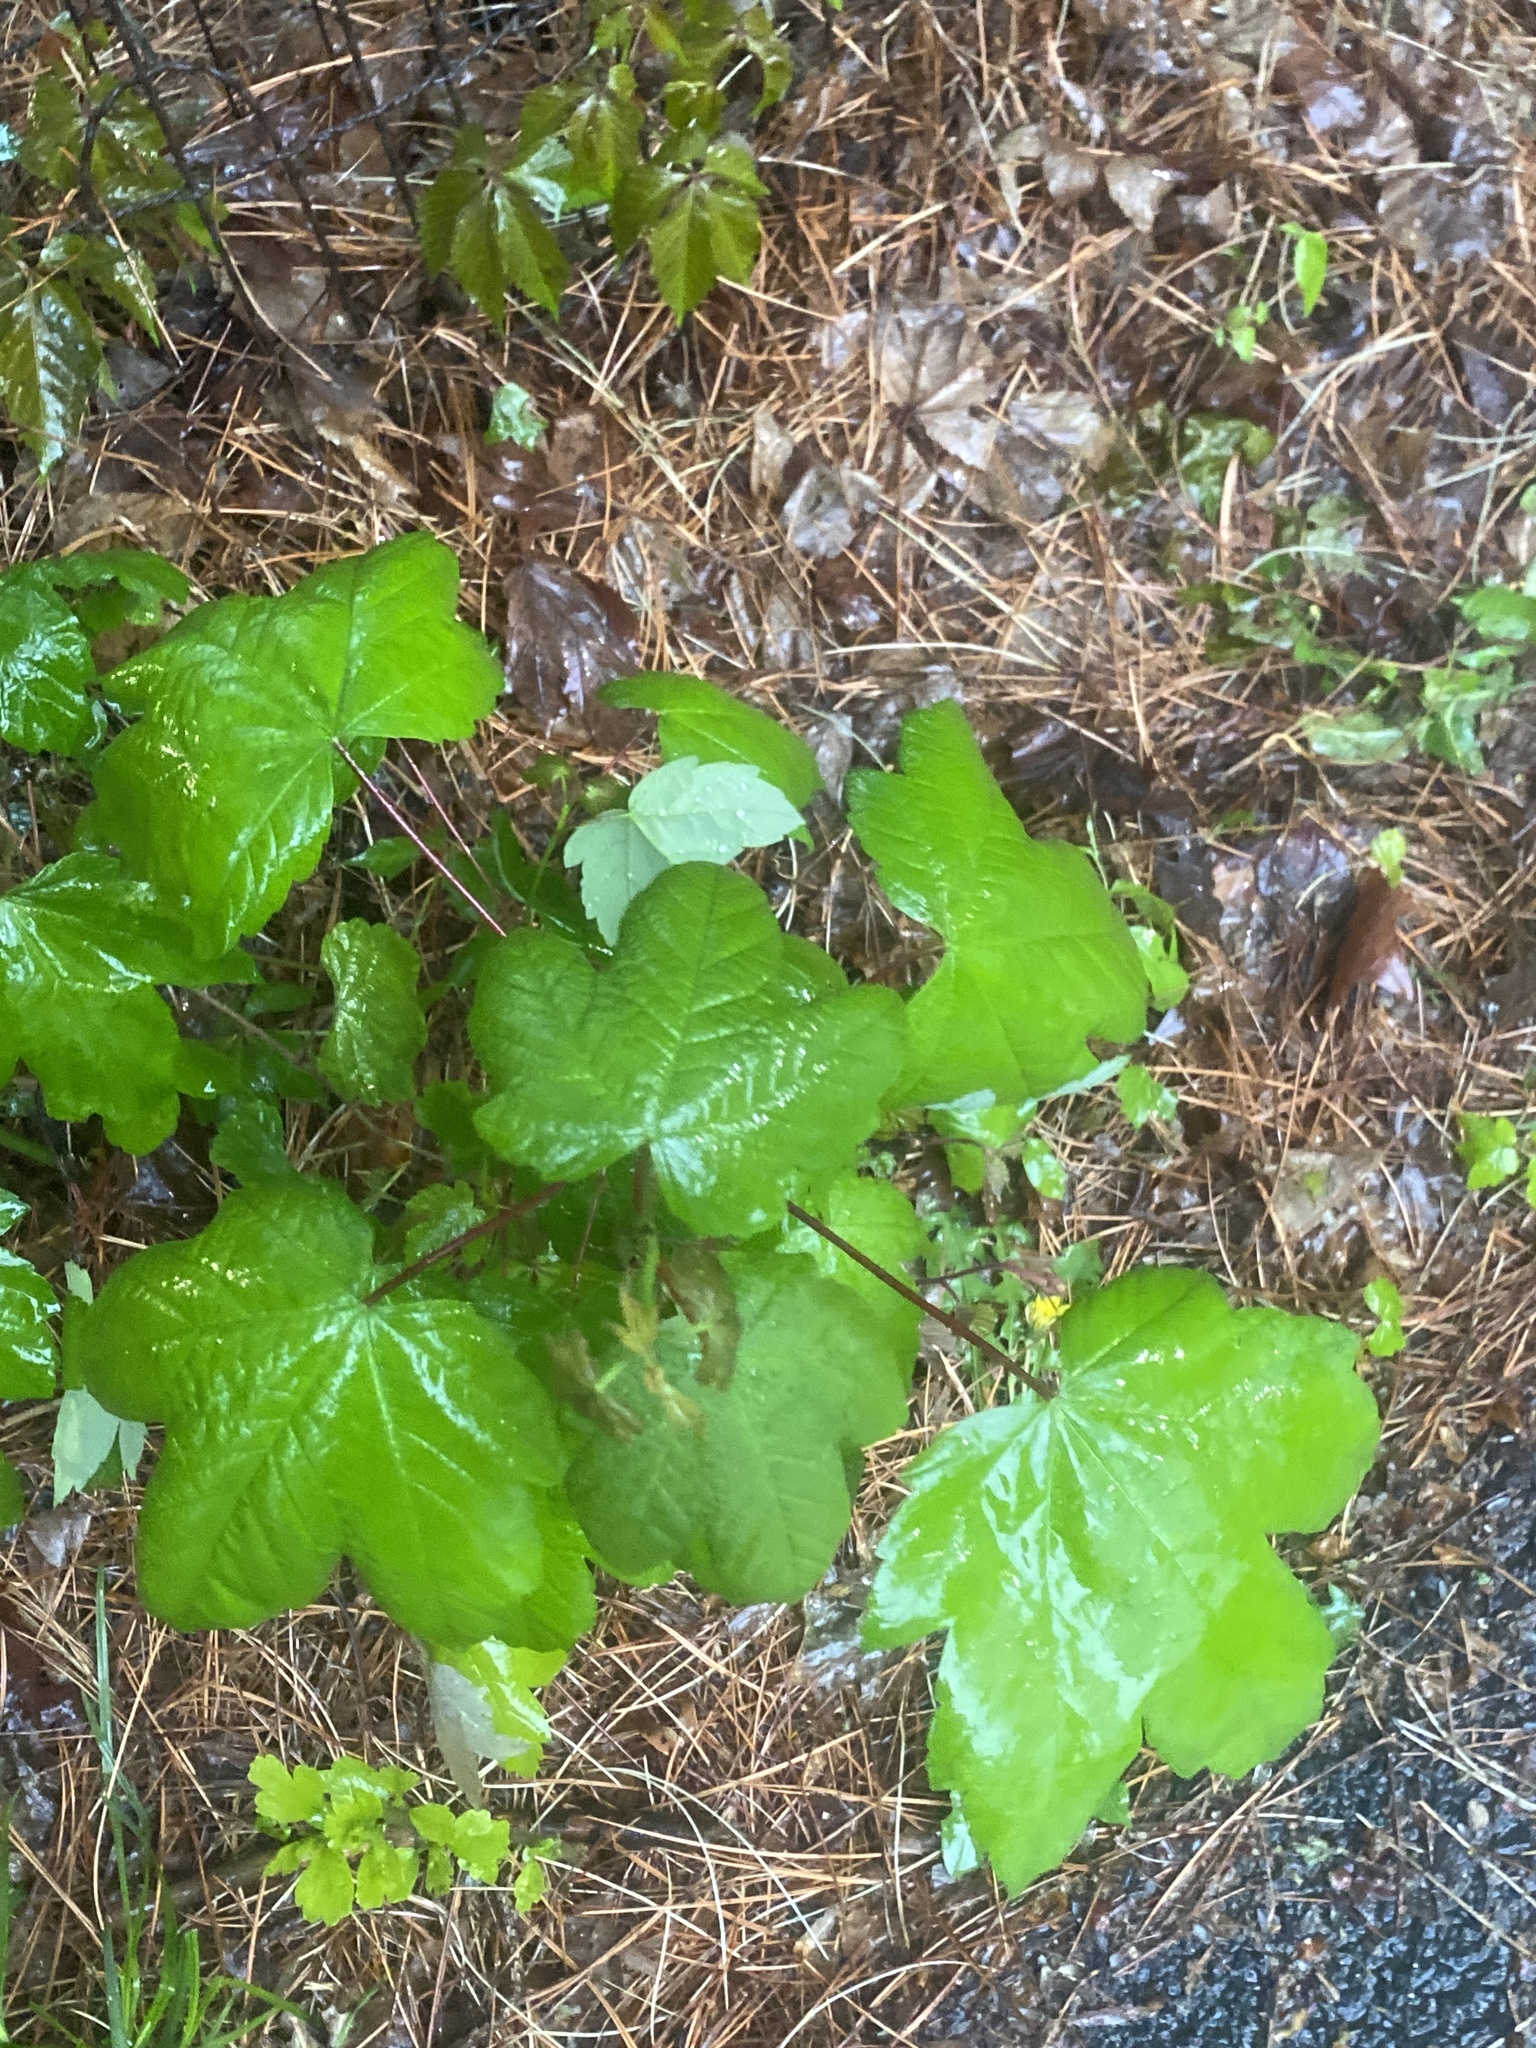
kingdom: Plantae
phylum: Tracheophyta
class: Magnoliopsida
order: Sapindales
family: Sapindaceae
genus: Acer
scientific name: Acer pseudoplatanus
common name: Sycamore
